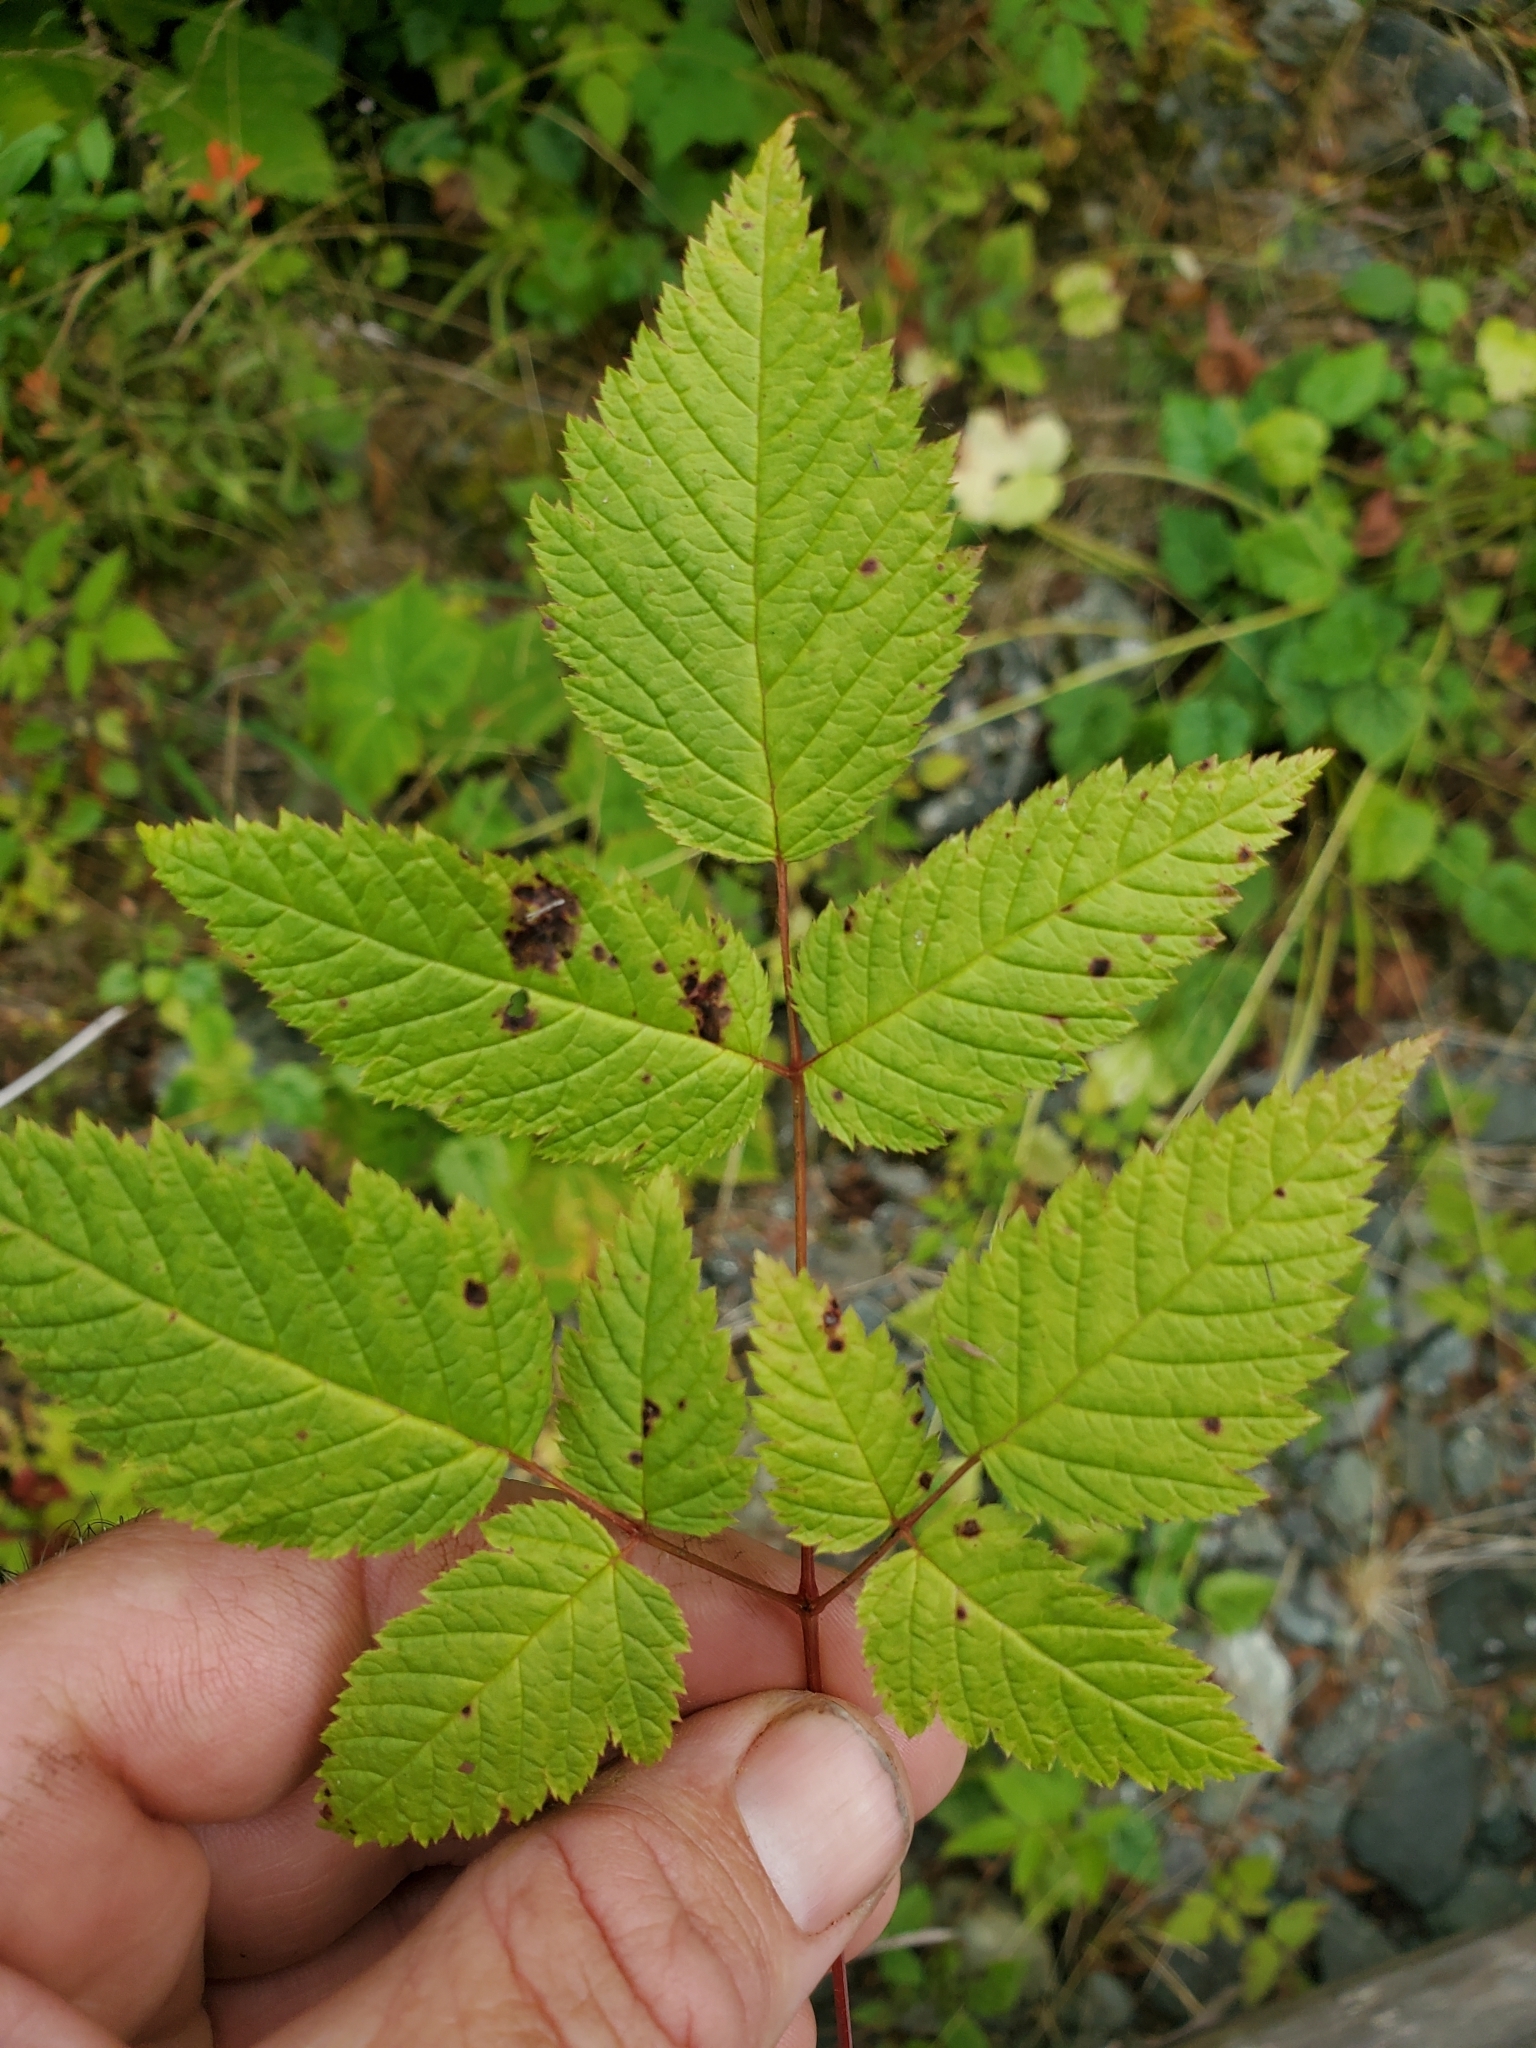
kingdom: Plantae
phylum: Tracheophyta
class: Magnoliopsida
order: Rosales
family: Rosaceae
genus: Aruncus
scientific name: Aruncus dioicus
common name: Buck's-beard
